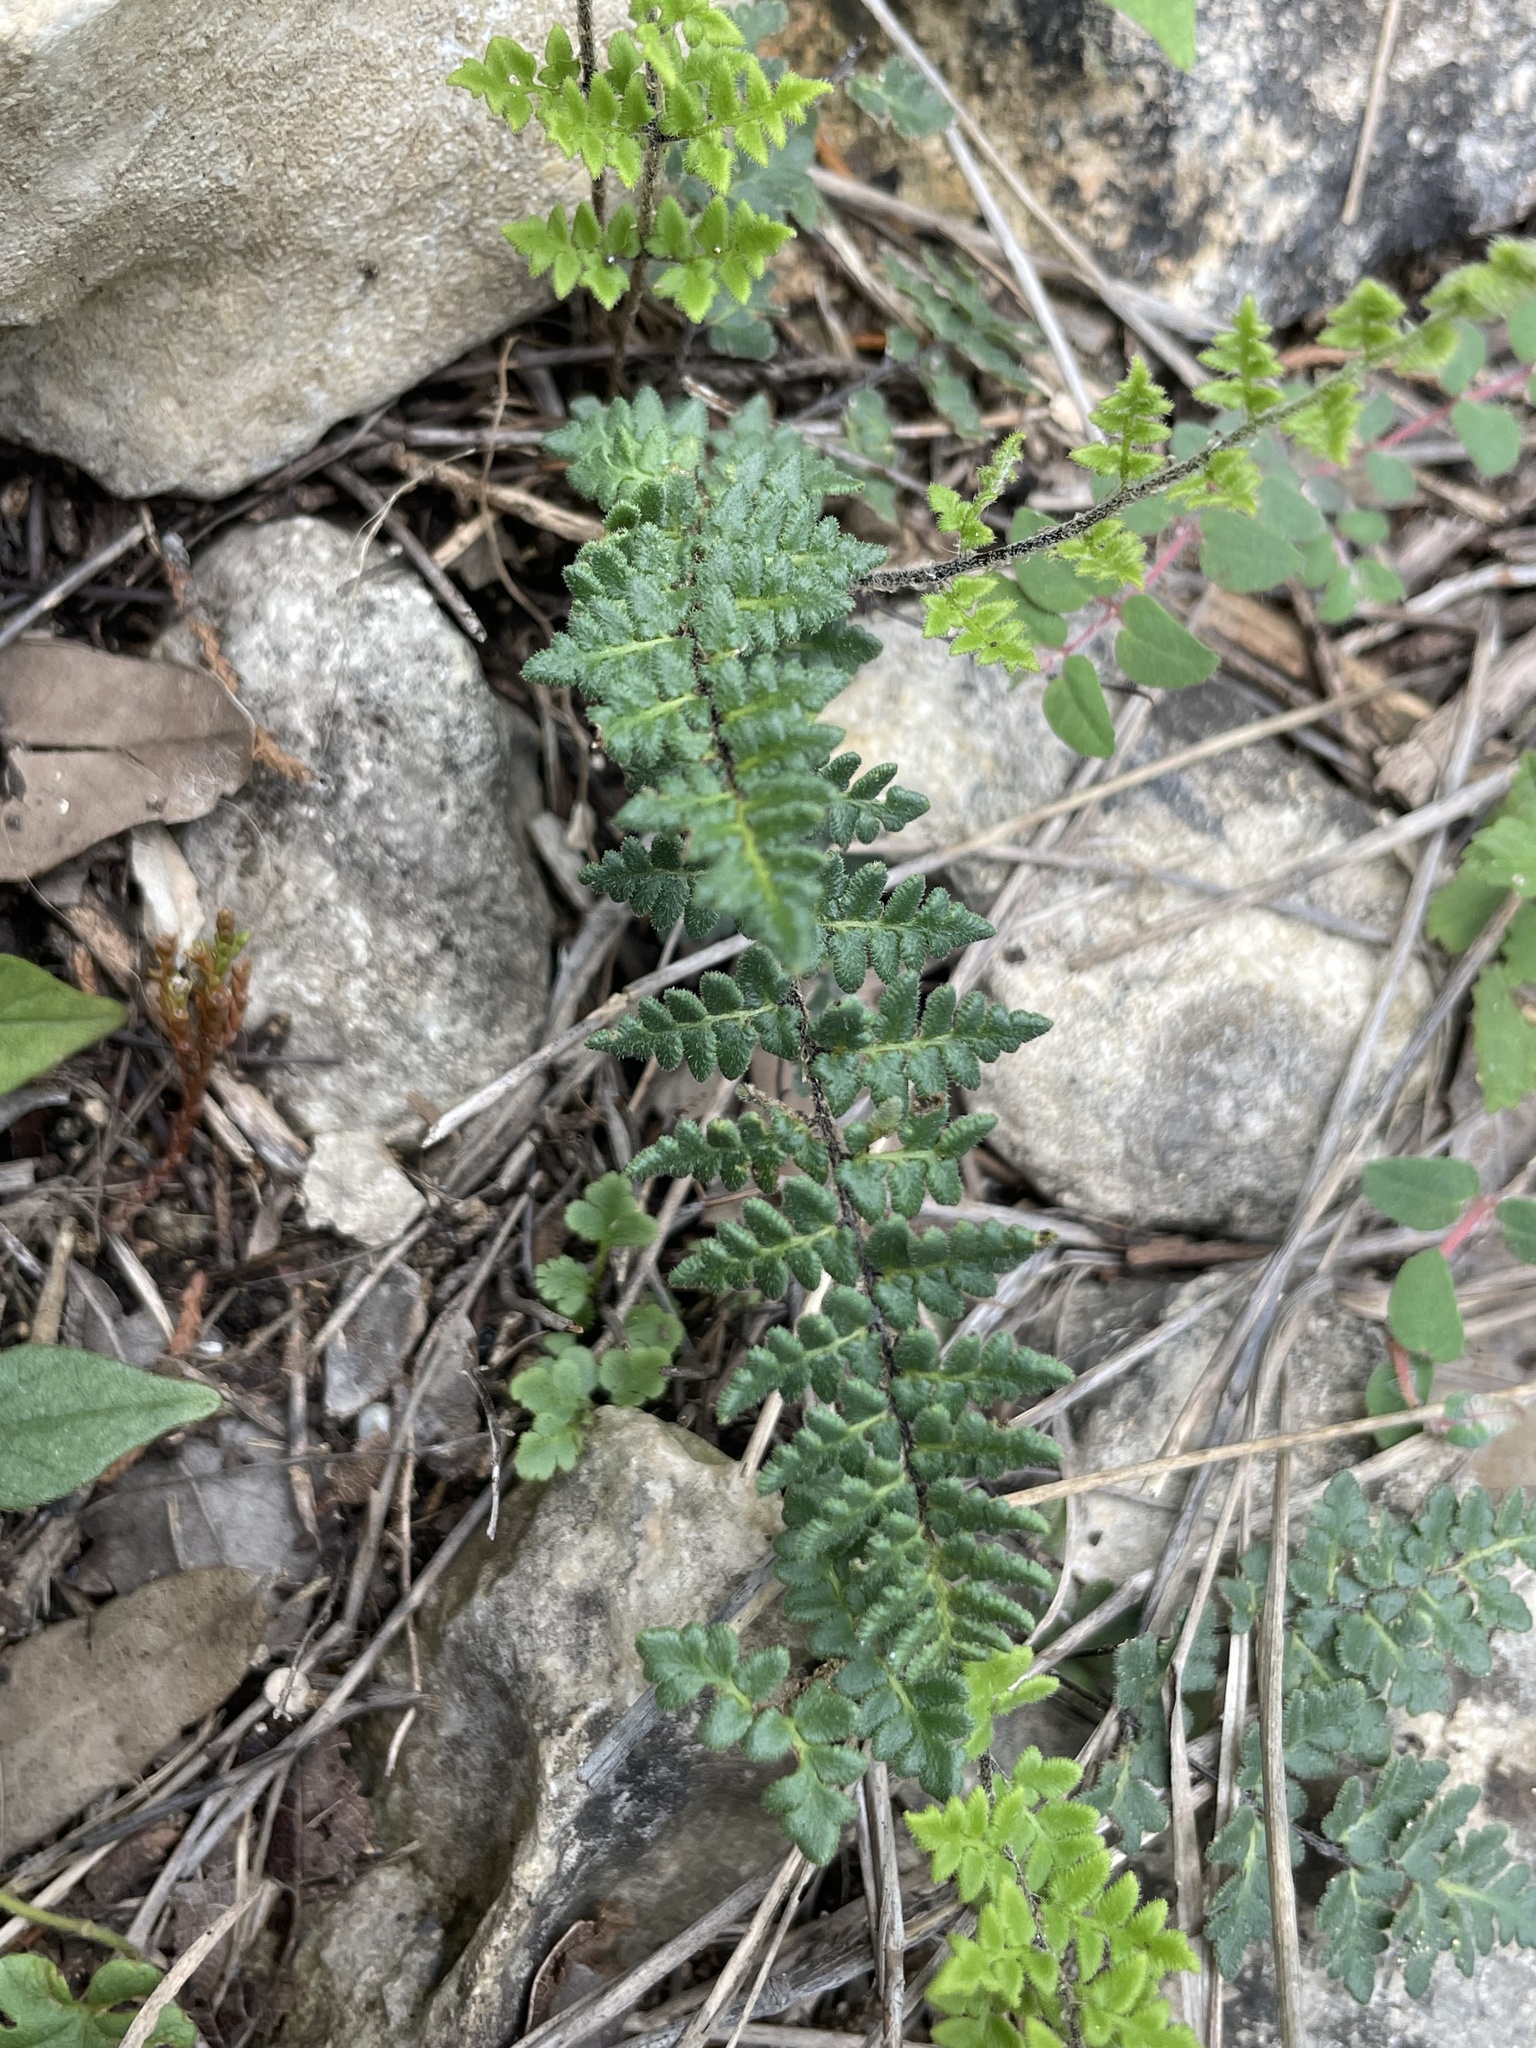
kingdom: Plantae
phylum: Tracheophyta
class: Polypodiopsida
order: Polypodiales
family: Pteridaceae
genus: Myriopteris
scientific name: Myriopteris scabra
